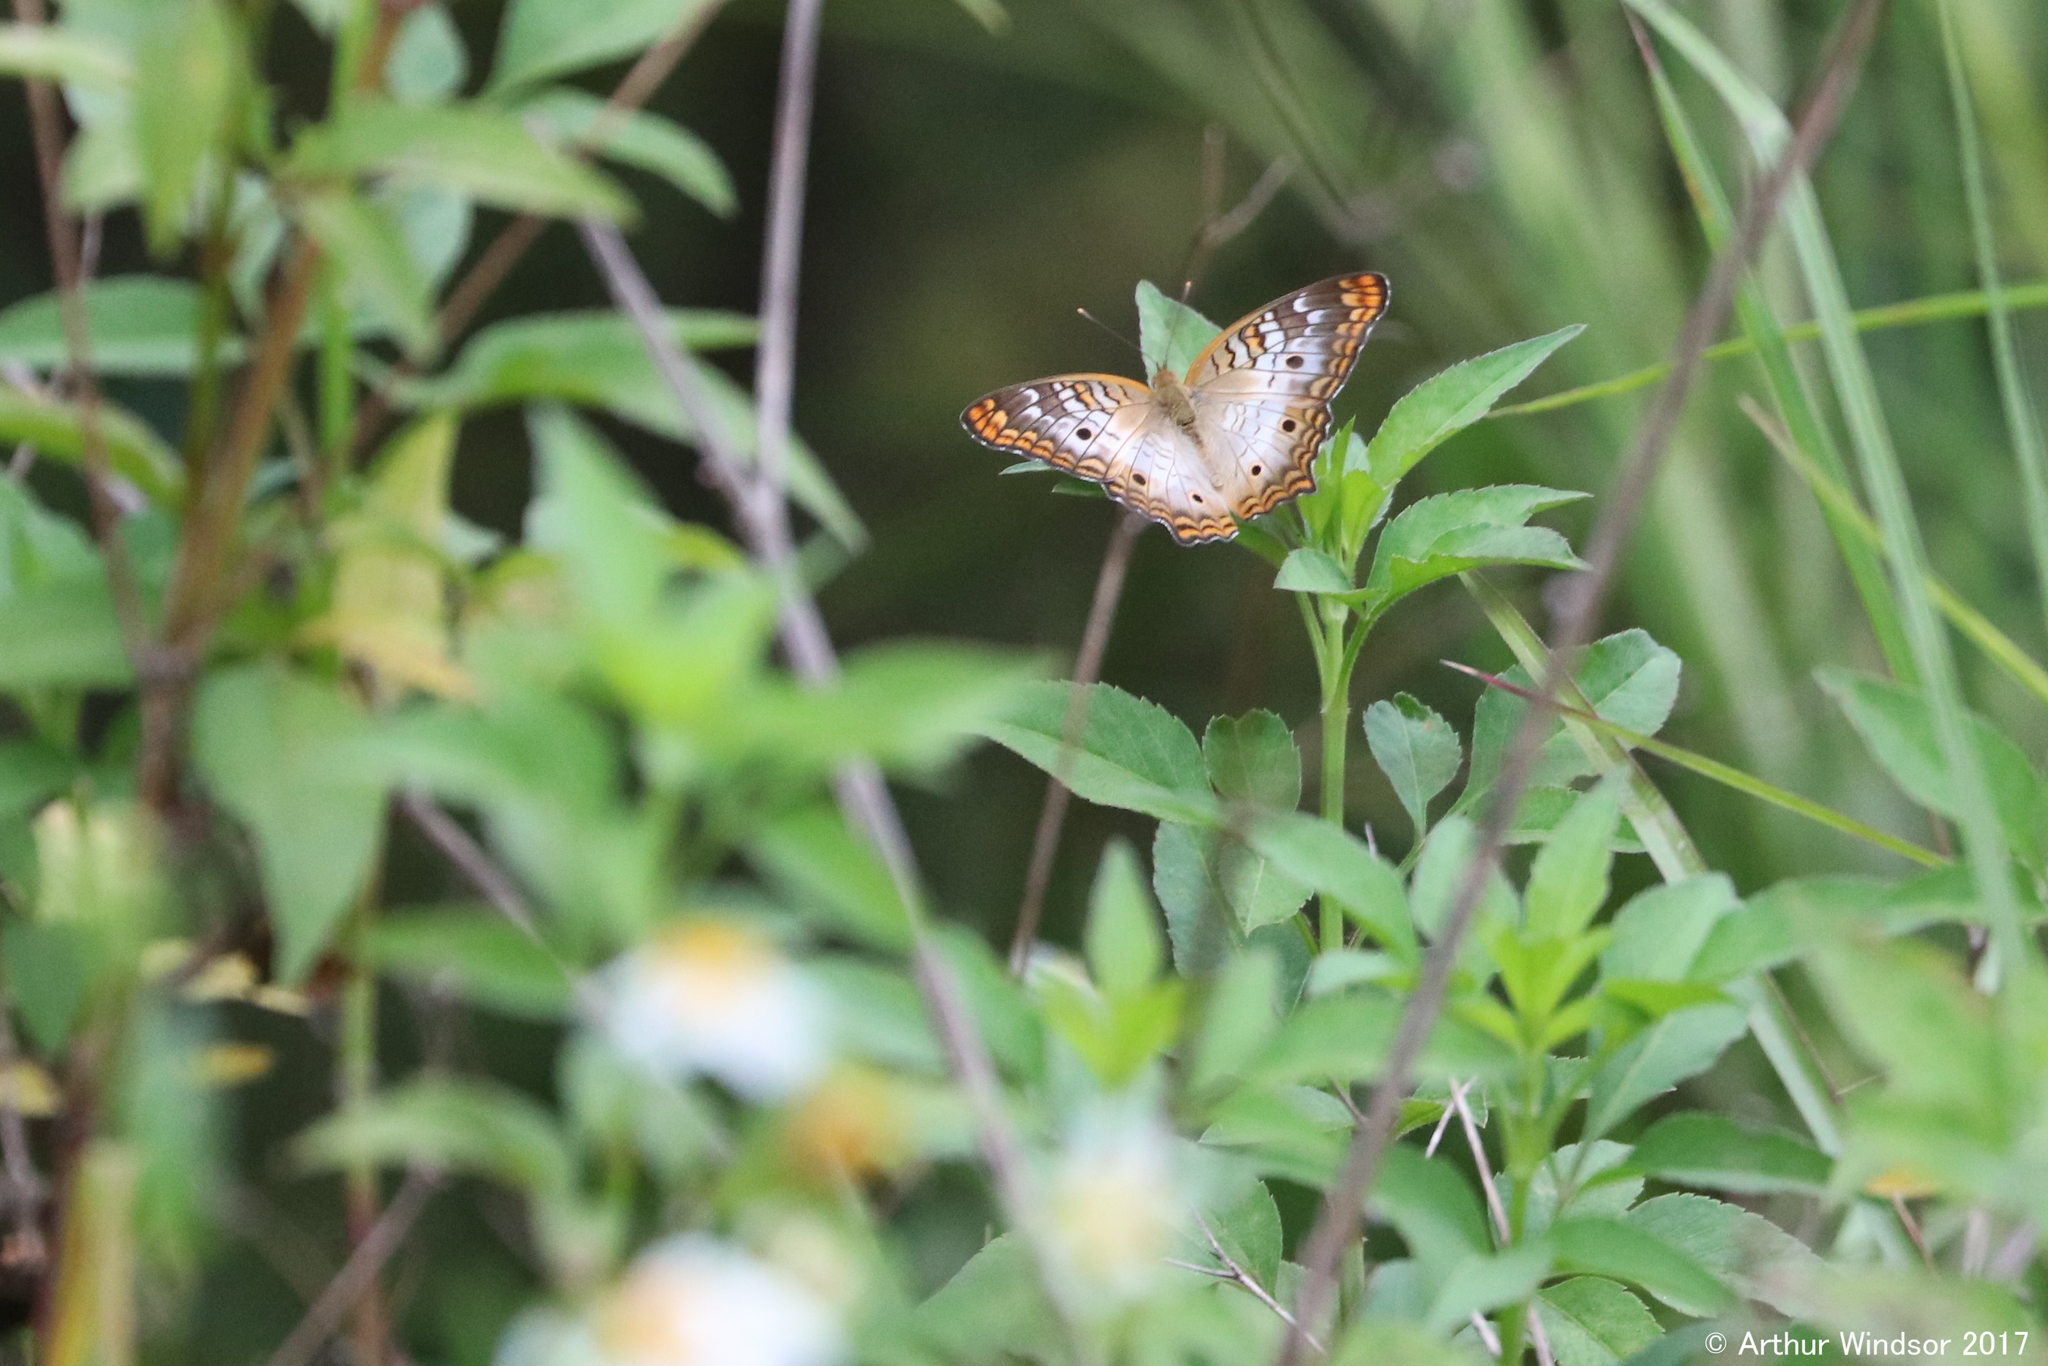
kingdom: Animalia
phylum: Arthropoda
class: Insecta
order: Lepidoptera
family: Nymphalidae
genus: Anartia
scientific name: Anartia jatrophae
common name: White peacock
